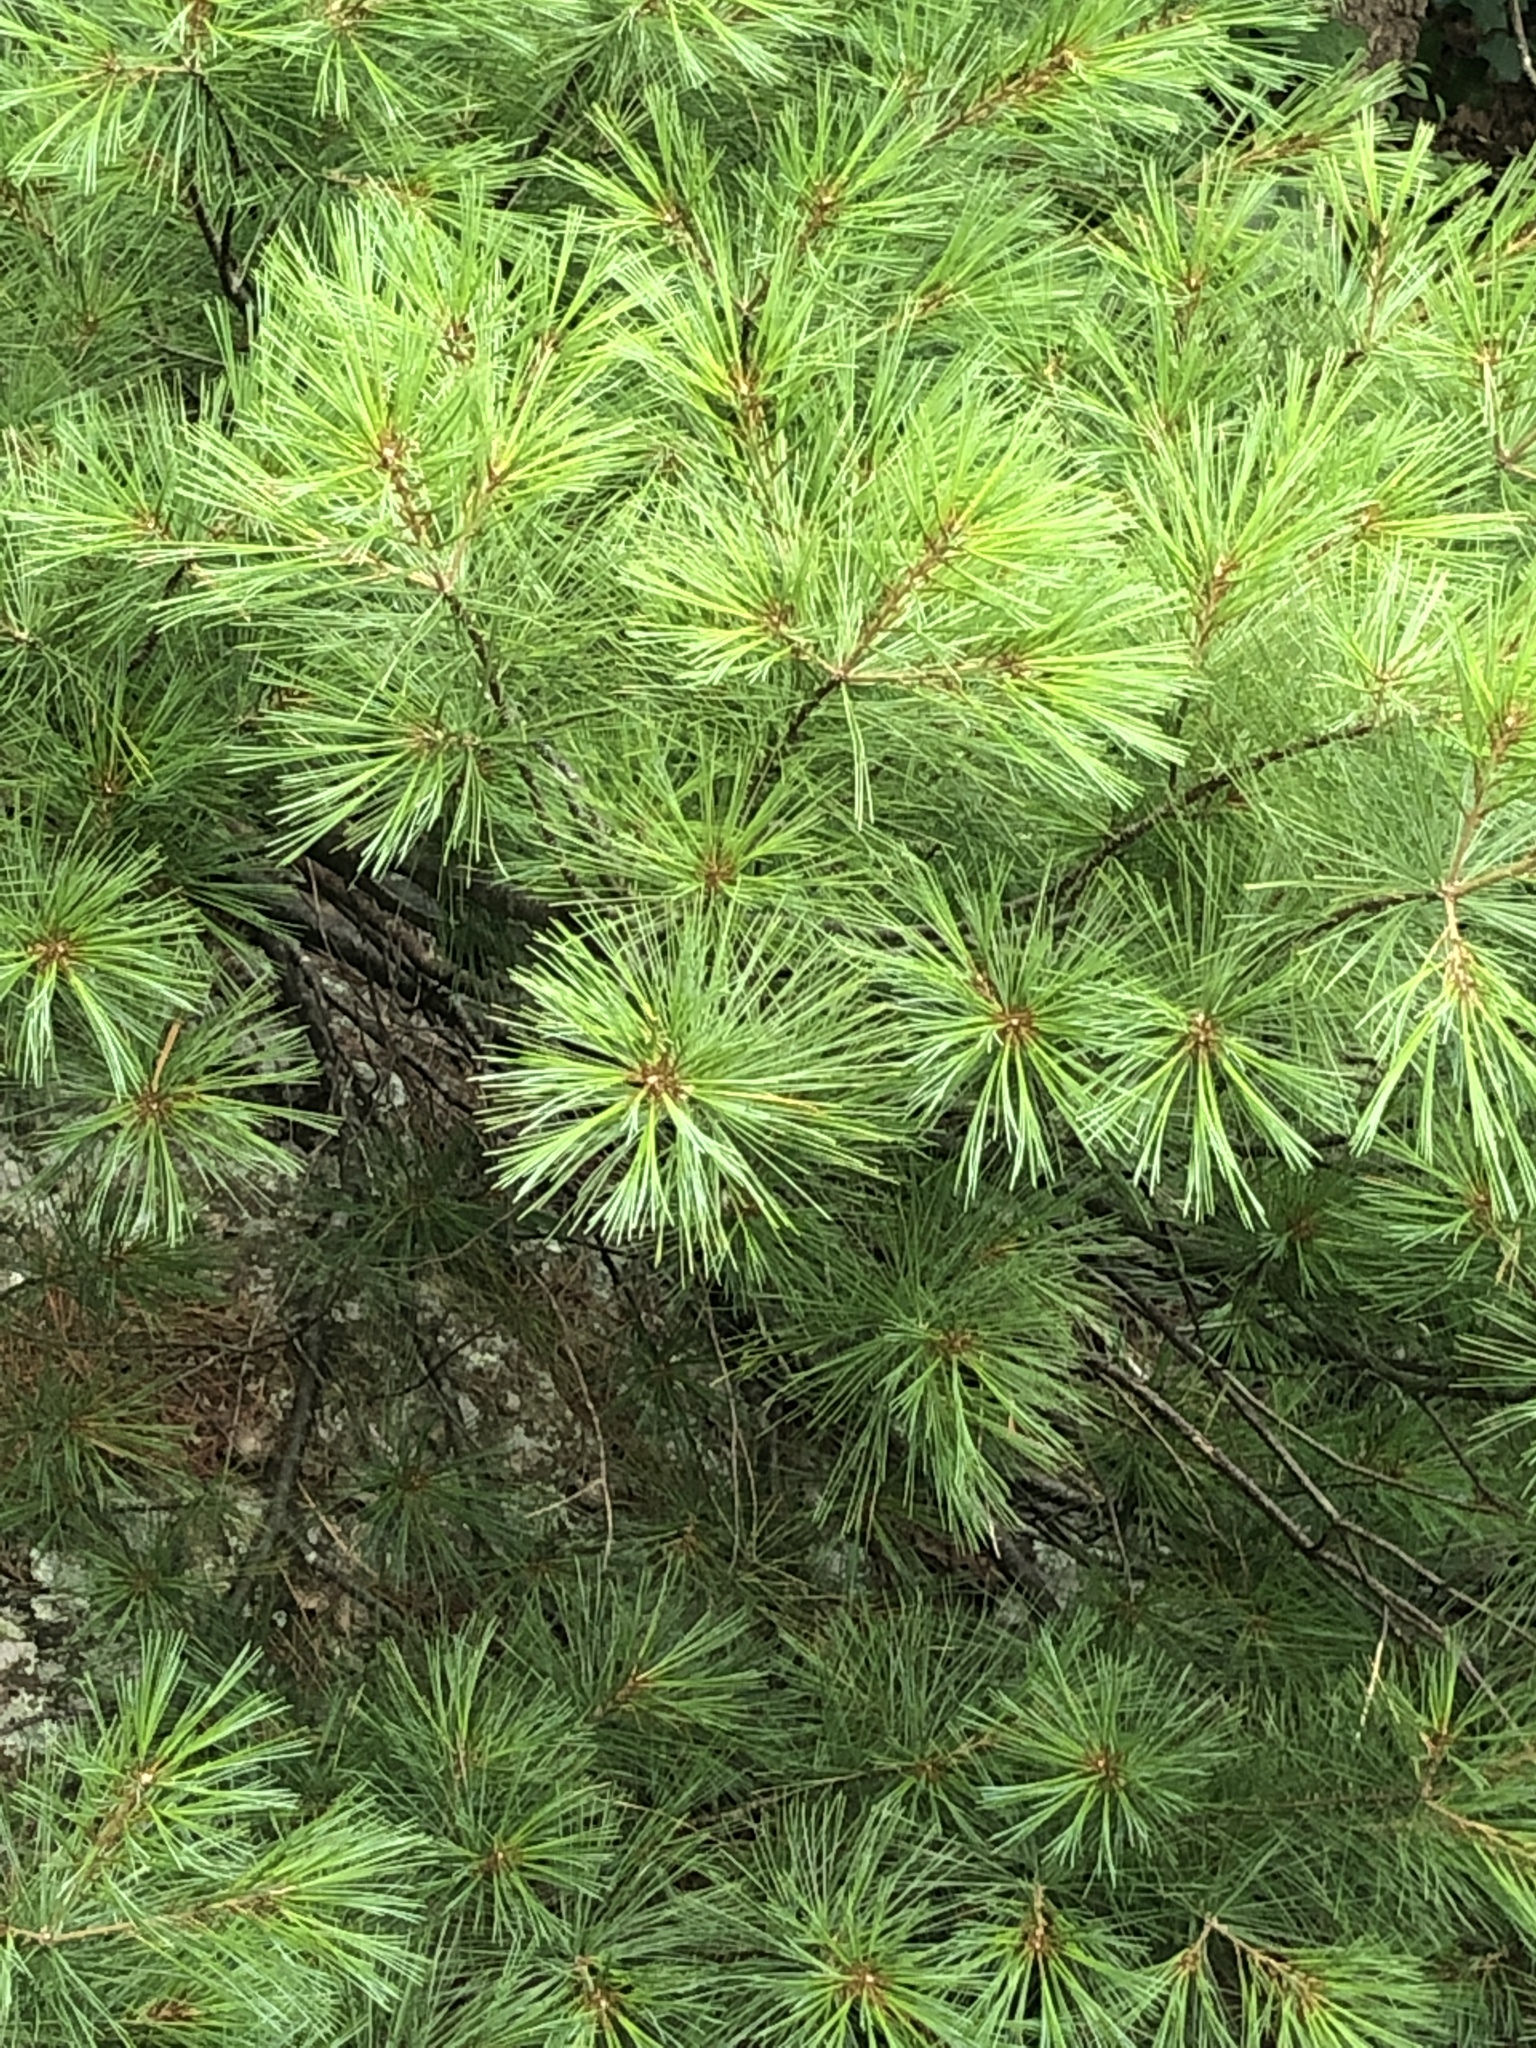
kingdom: Plantae
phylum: Tracheophyta
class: Pinopsida
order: Pinales
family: Pinaceae
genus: Pinus
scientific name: Pinus strobus
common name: Weymouth pine
